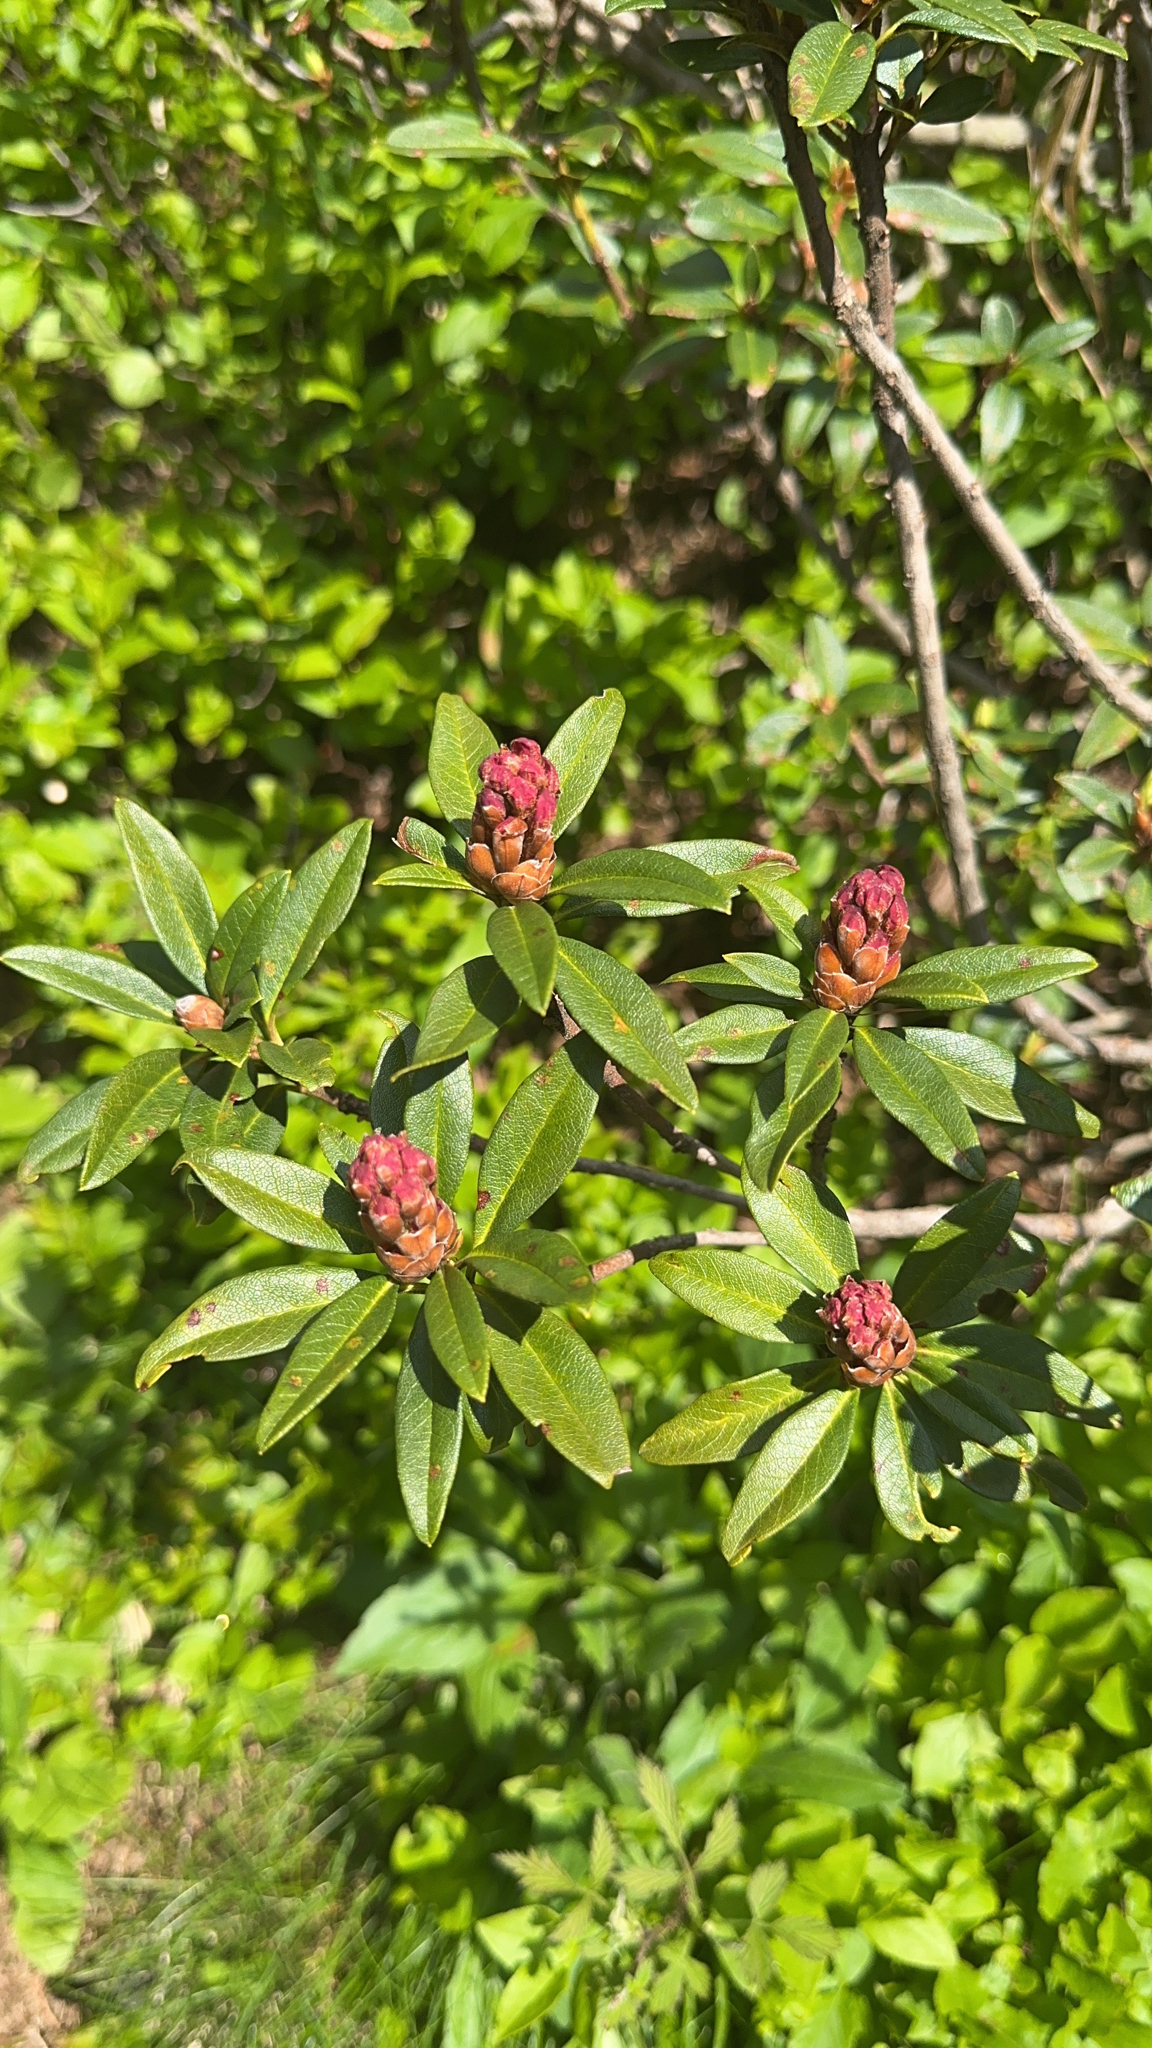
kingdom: Plantae
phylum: Tracheophyta
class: Magnoliopsida
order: Ericales
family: Ericaceae
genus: Rhododendron
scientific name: Rhododendron ferrugineum
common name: Alpenrose
